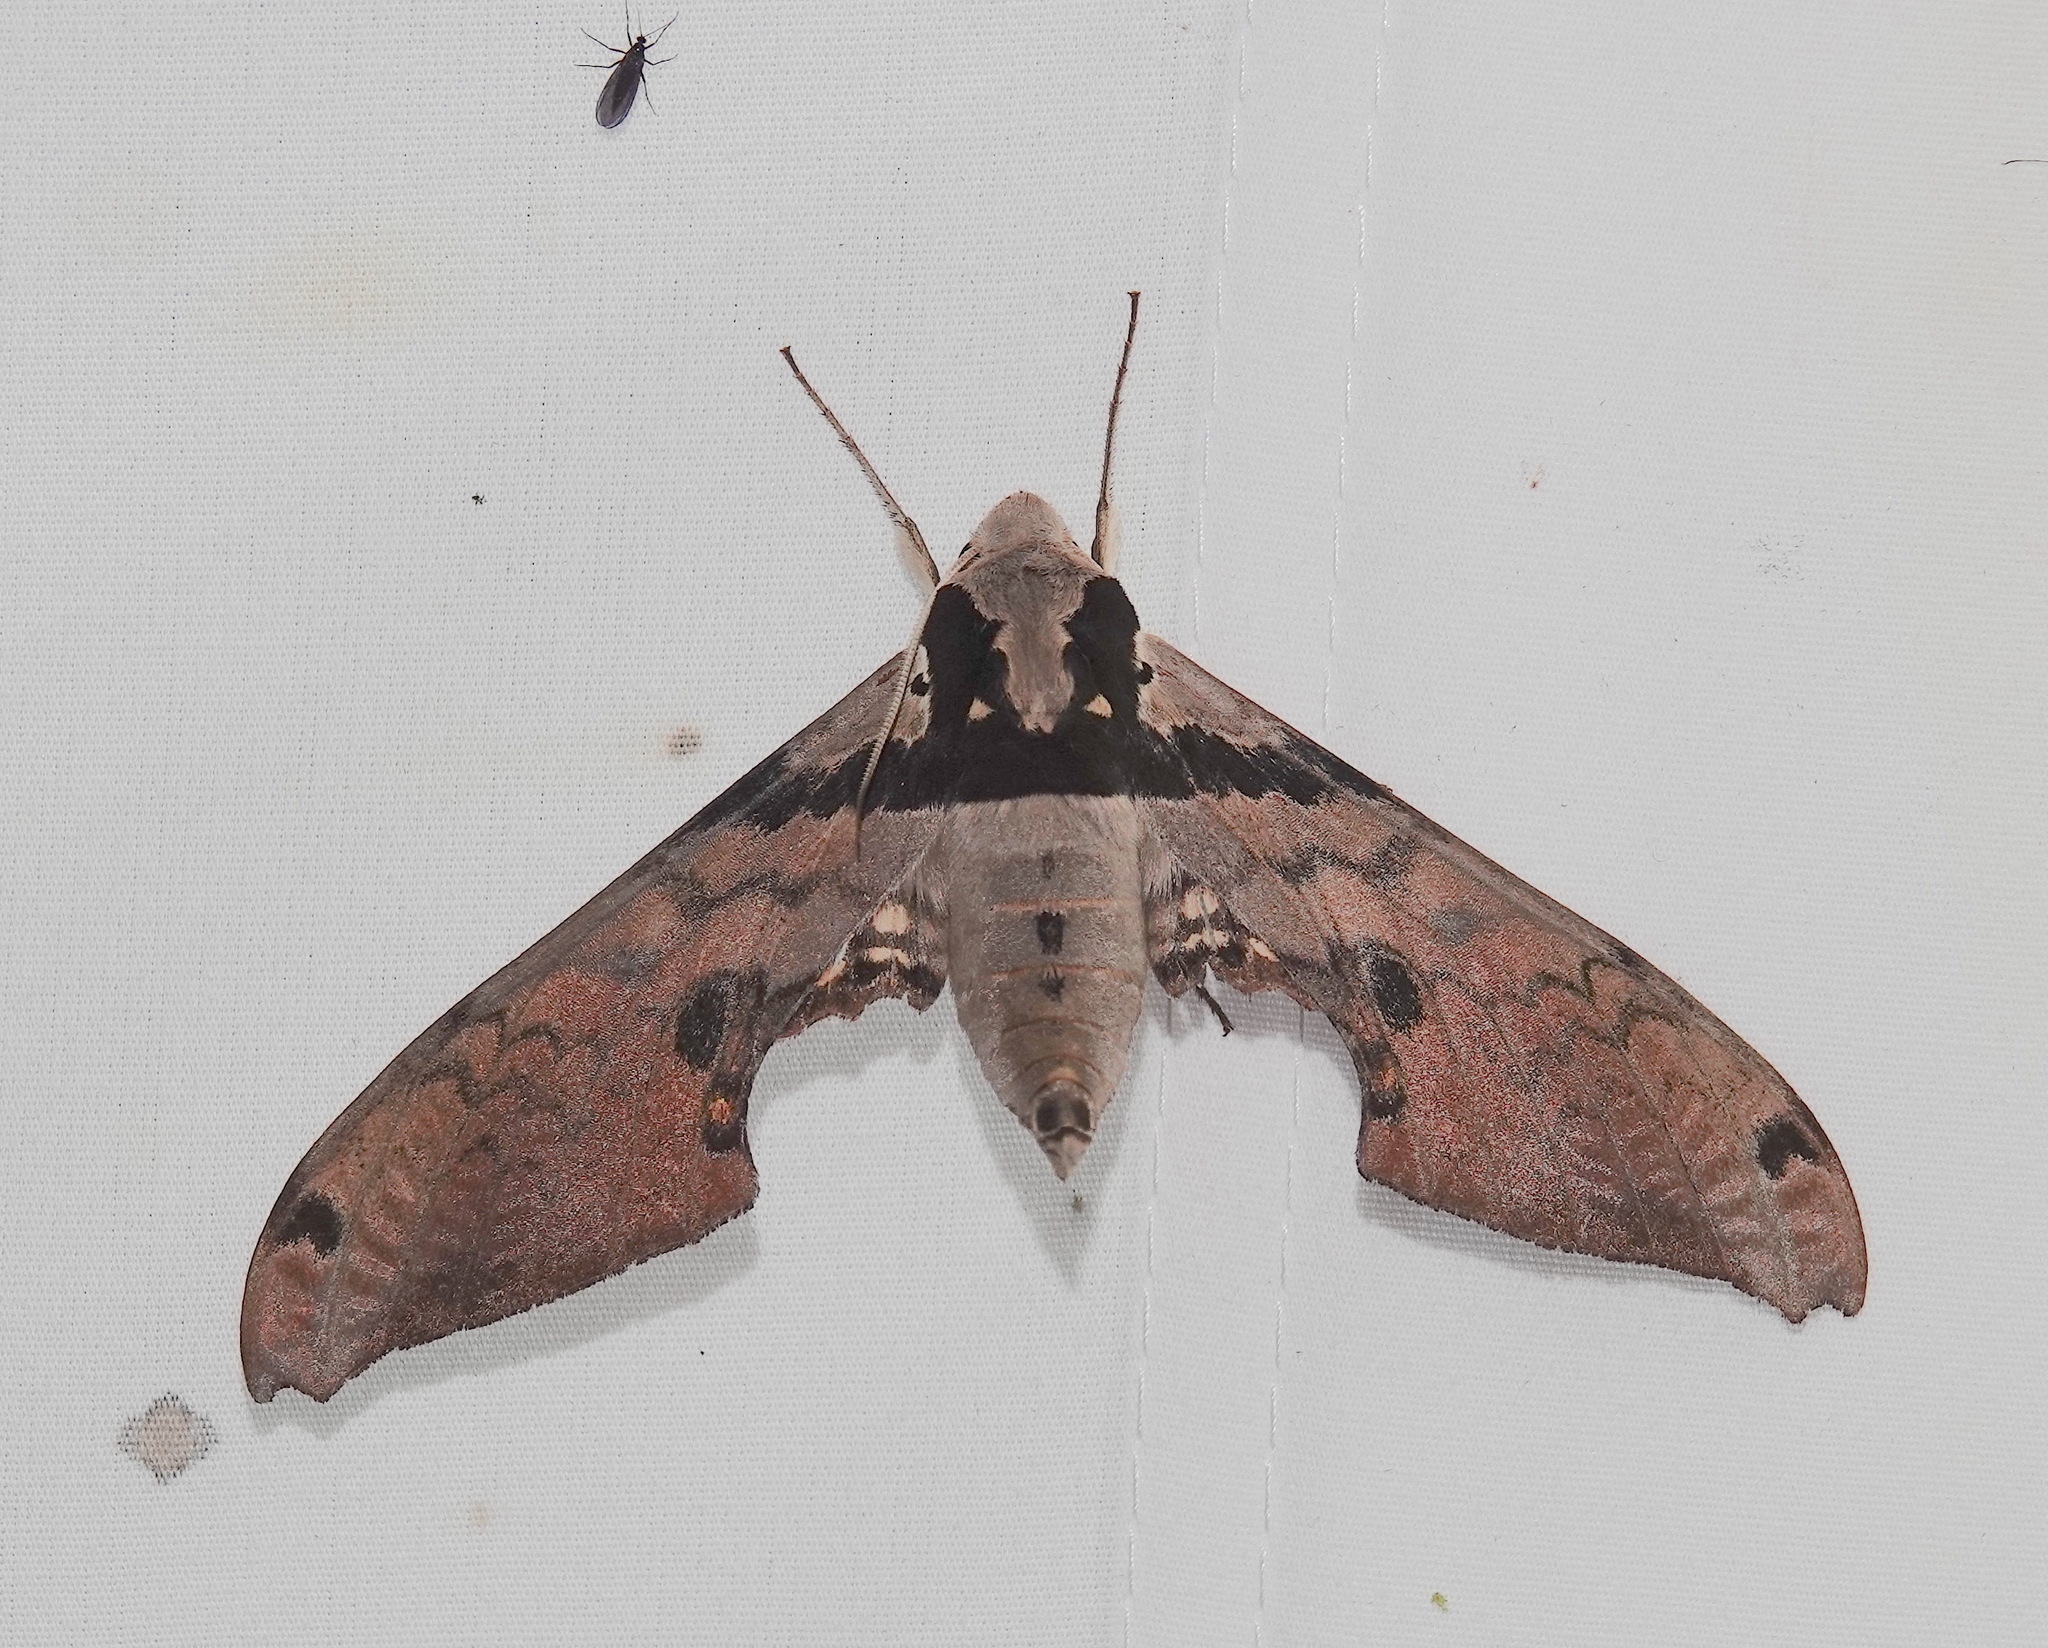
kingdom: Animalia
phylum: Arthropoda
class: Insecta
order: Lepidoptera
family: Sphingidae
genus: Adhemarius
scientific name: Adhemarius gannascus
